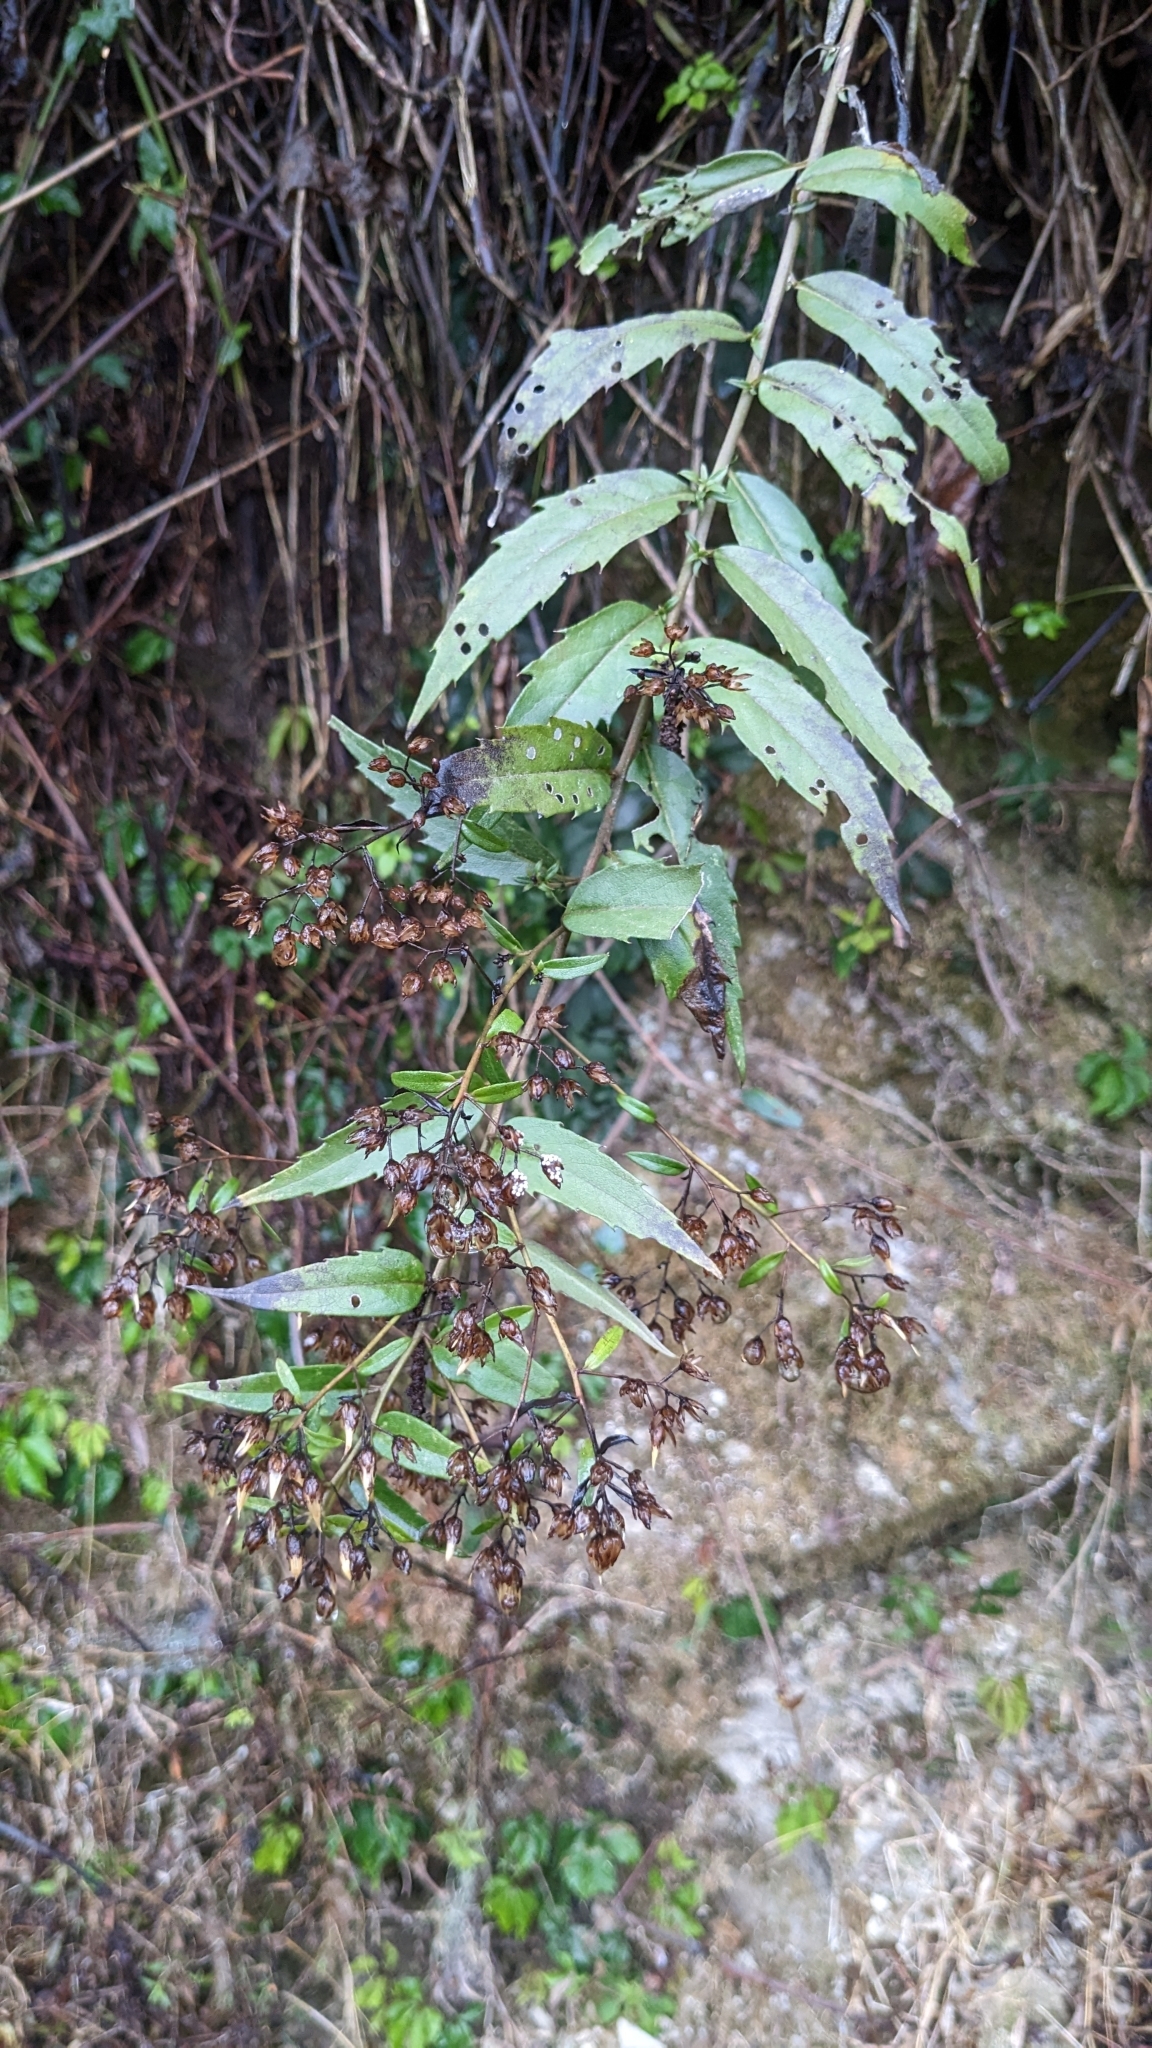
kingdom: Plantae
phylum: Tracheophyta
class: Magnoliopsida
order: Asterales
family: Asteraceae
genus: Aster
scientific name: Aster taiwanensis
